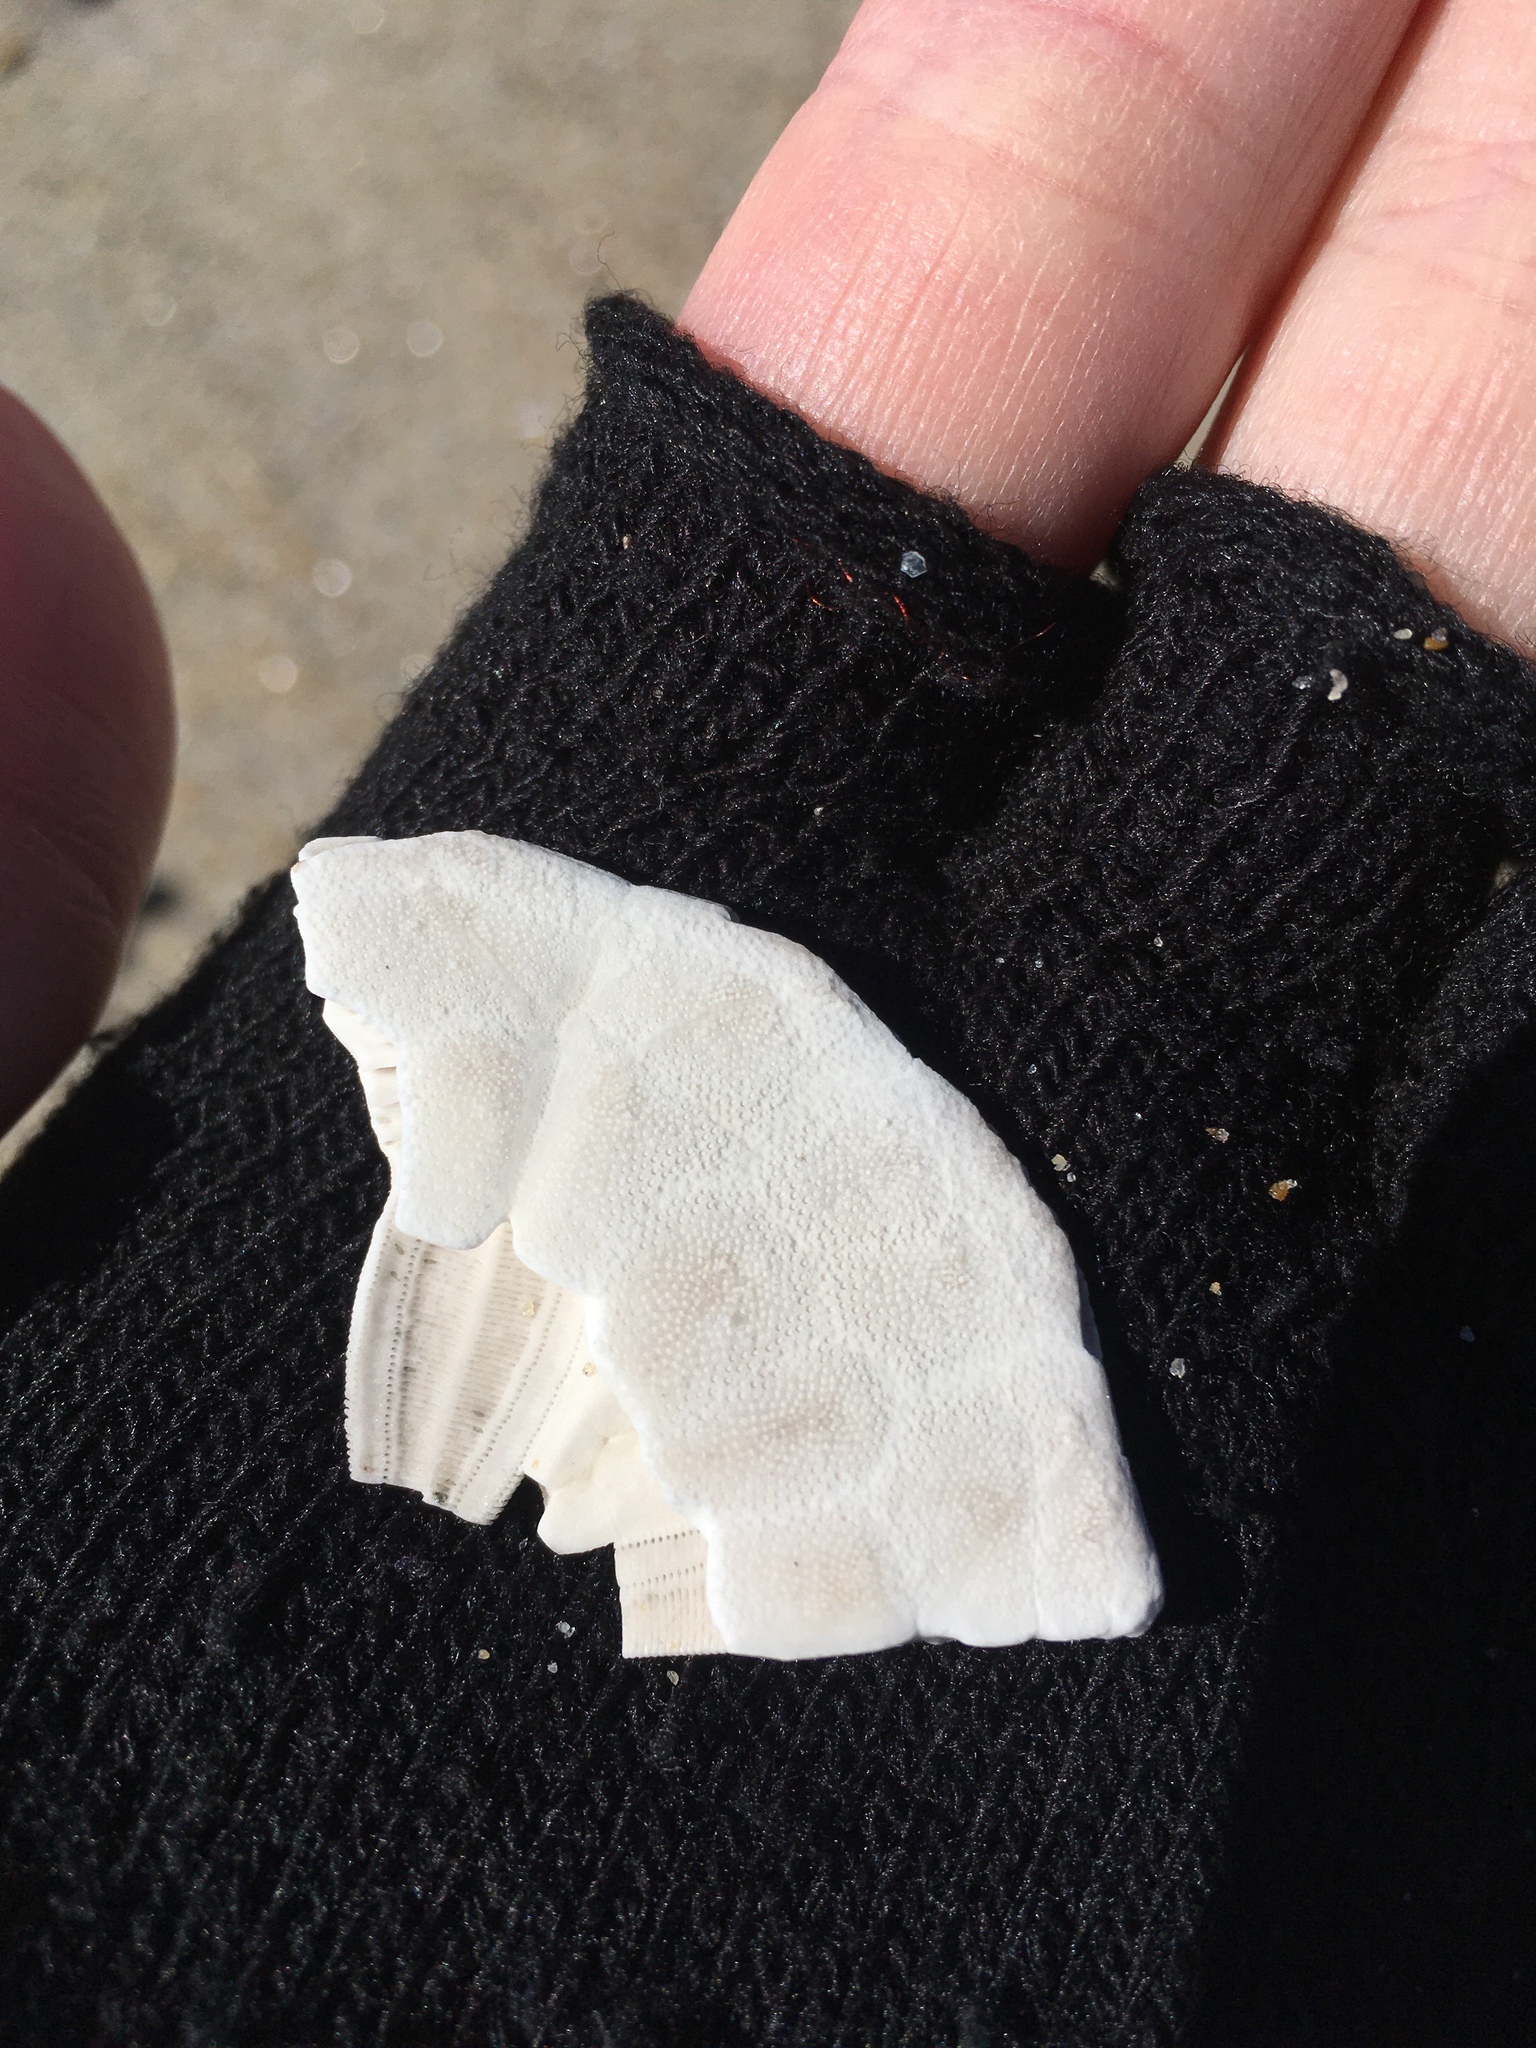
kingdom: Animalia
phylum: Echinodermata
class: Echinoidea
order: Echinolampadacea
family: Echinarachniidae
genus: Echinarachnius
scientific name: Echinarachnius parma
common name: Common sand dollar
